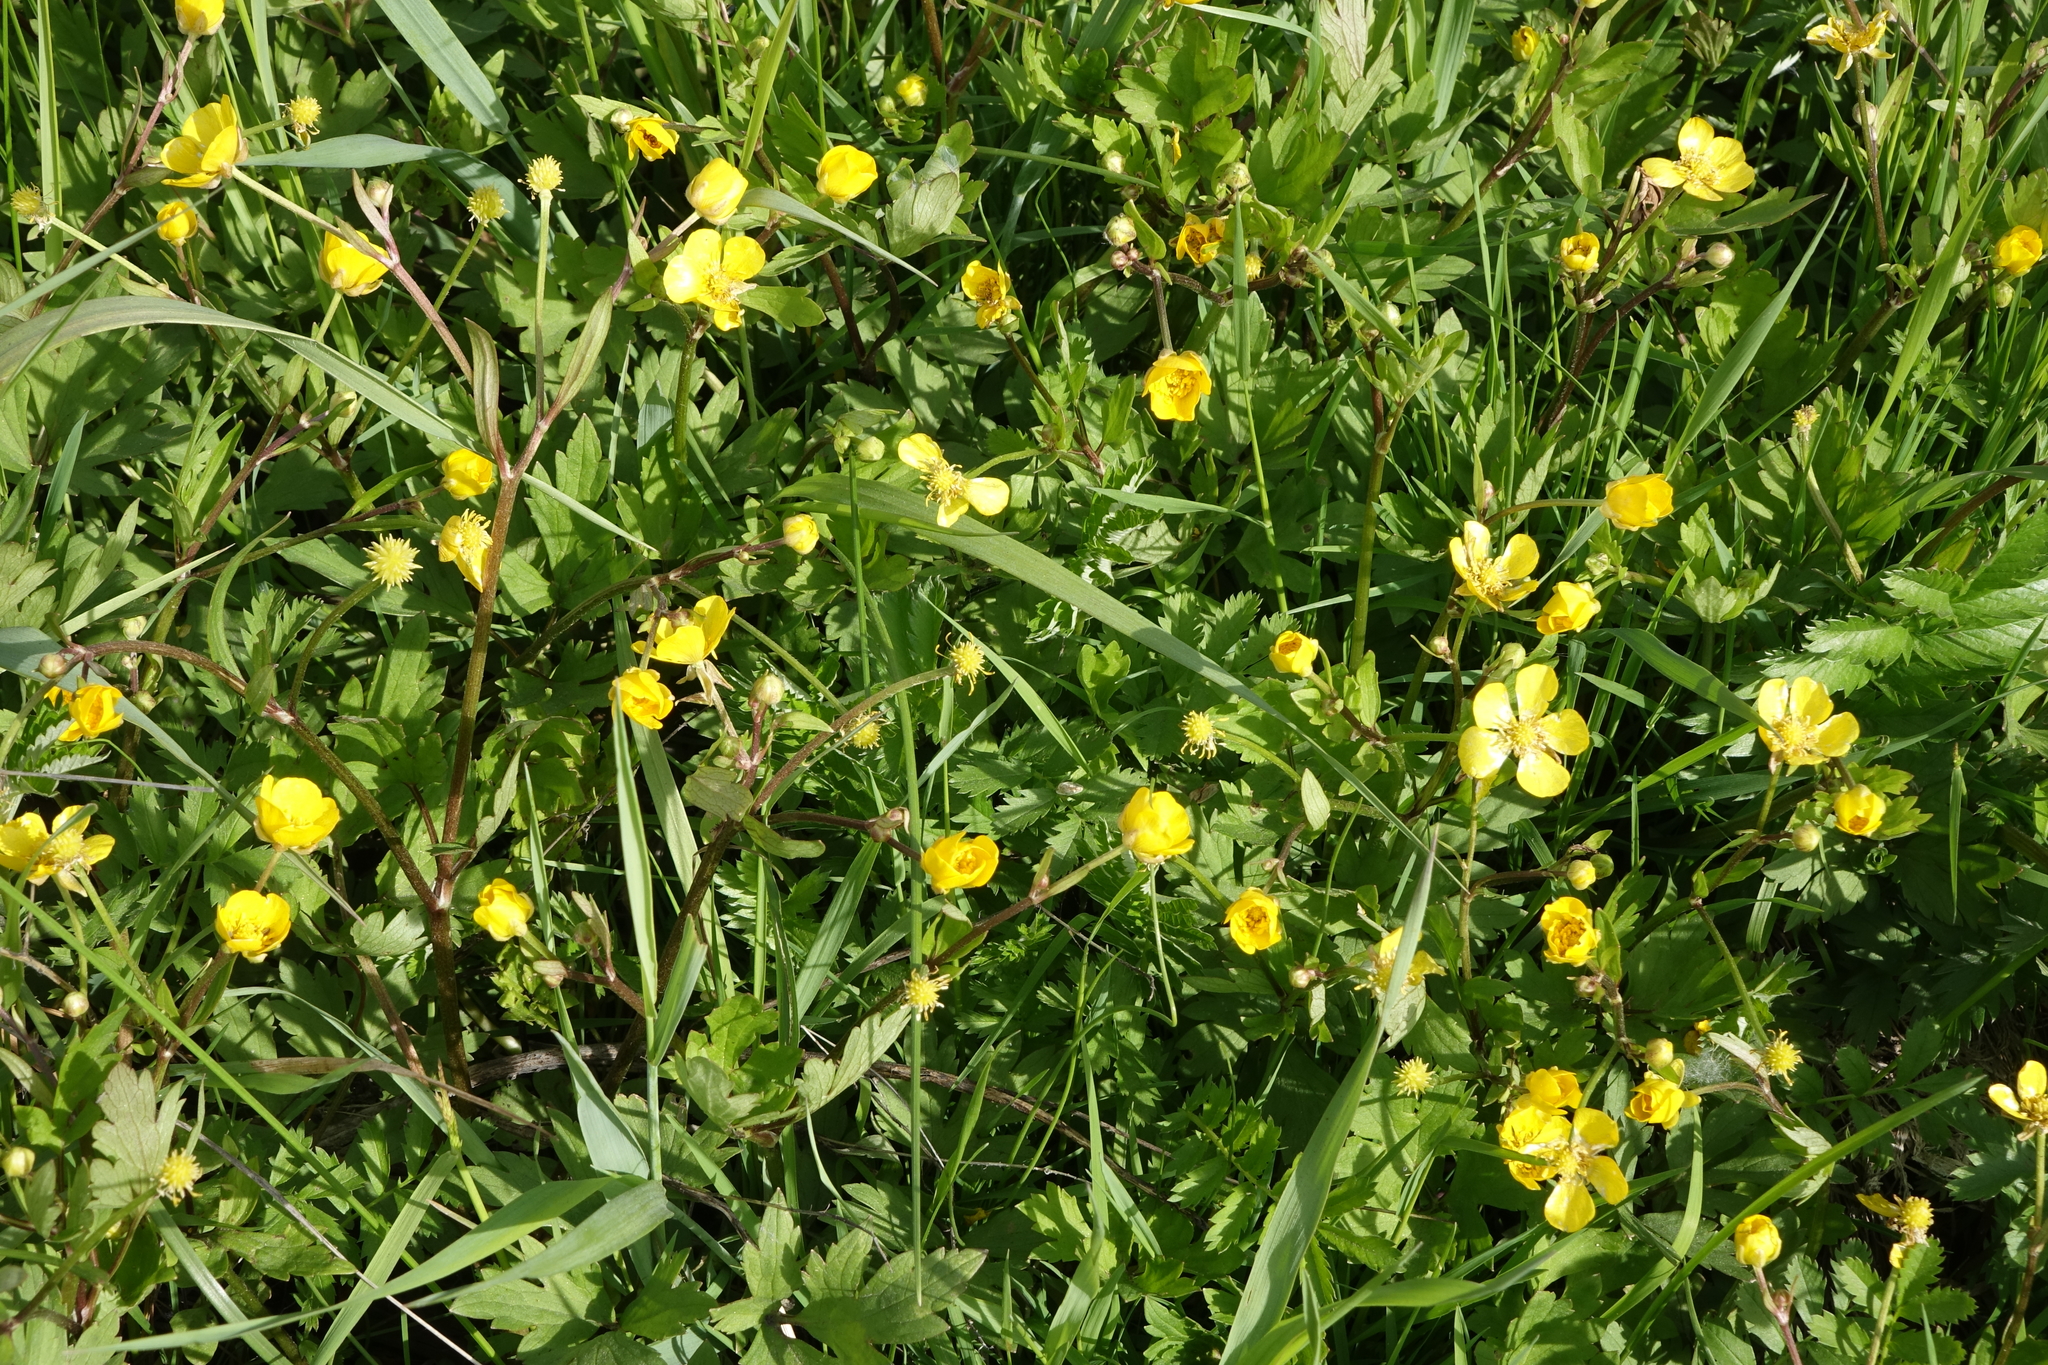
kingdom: Plantae
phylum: Tracheophyta
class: Magnoliopsida
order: Ranunculales
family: Ranunculaceae
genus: Ranunculus
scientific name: Ranunculus repens
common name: Creeping buttercup
